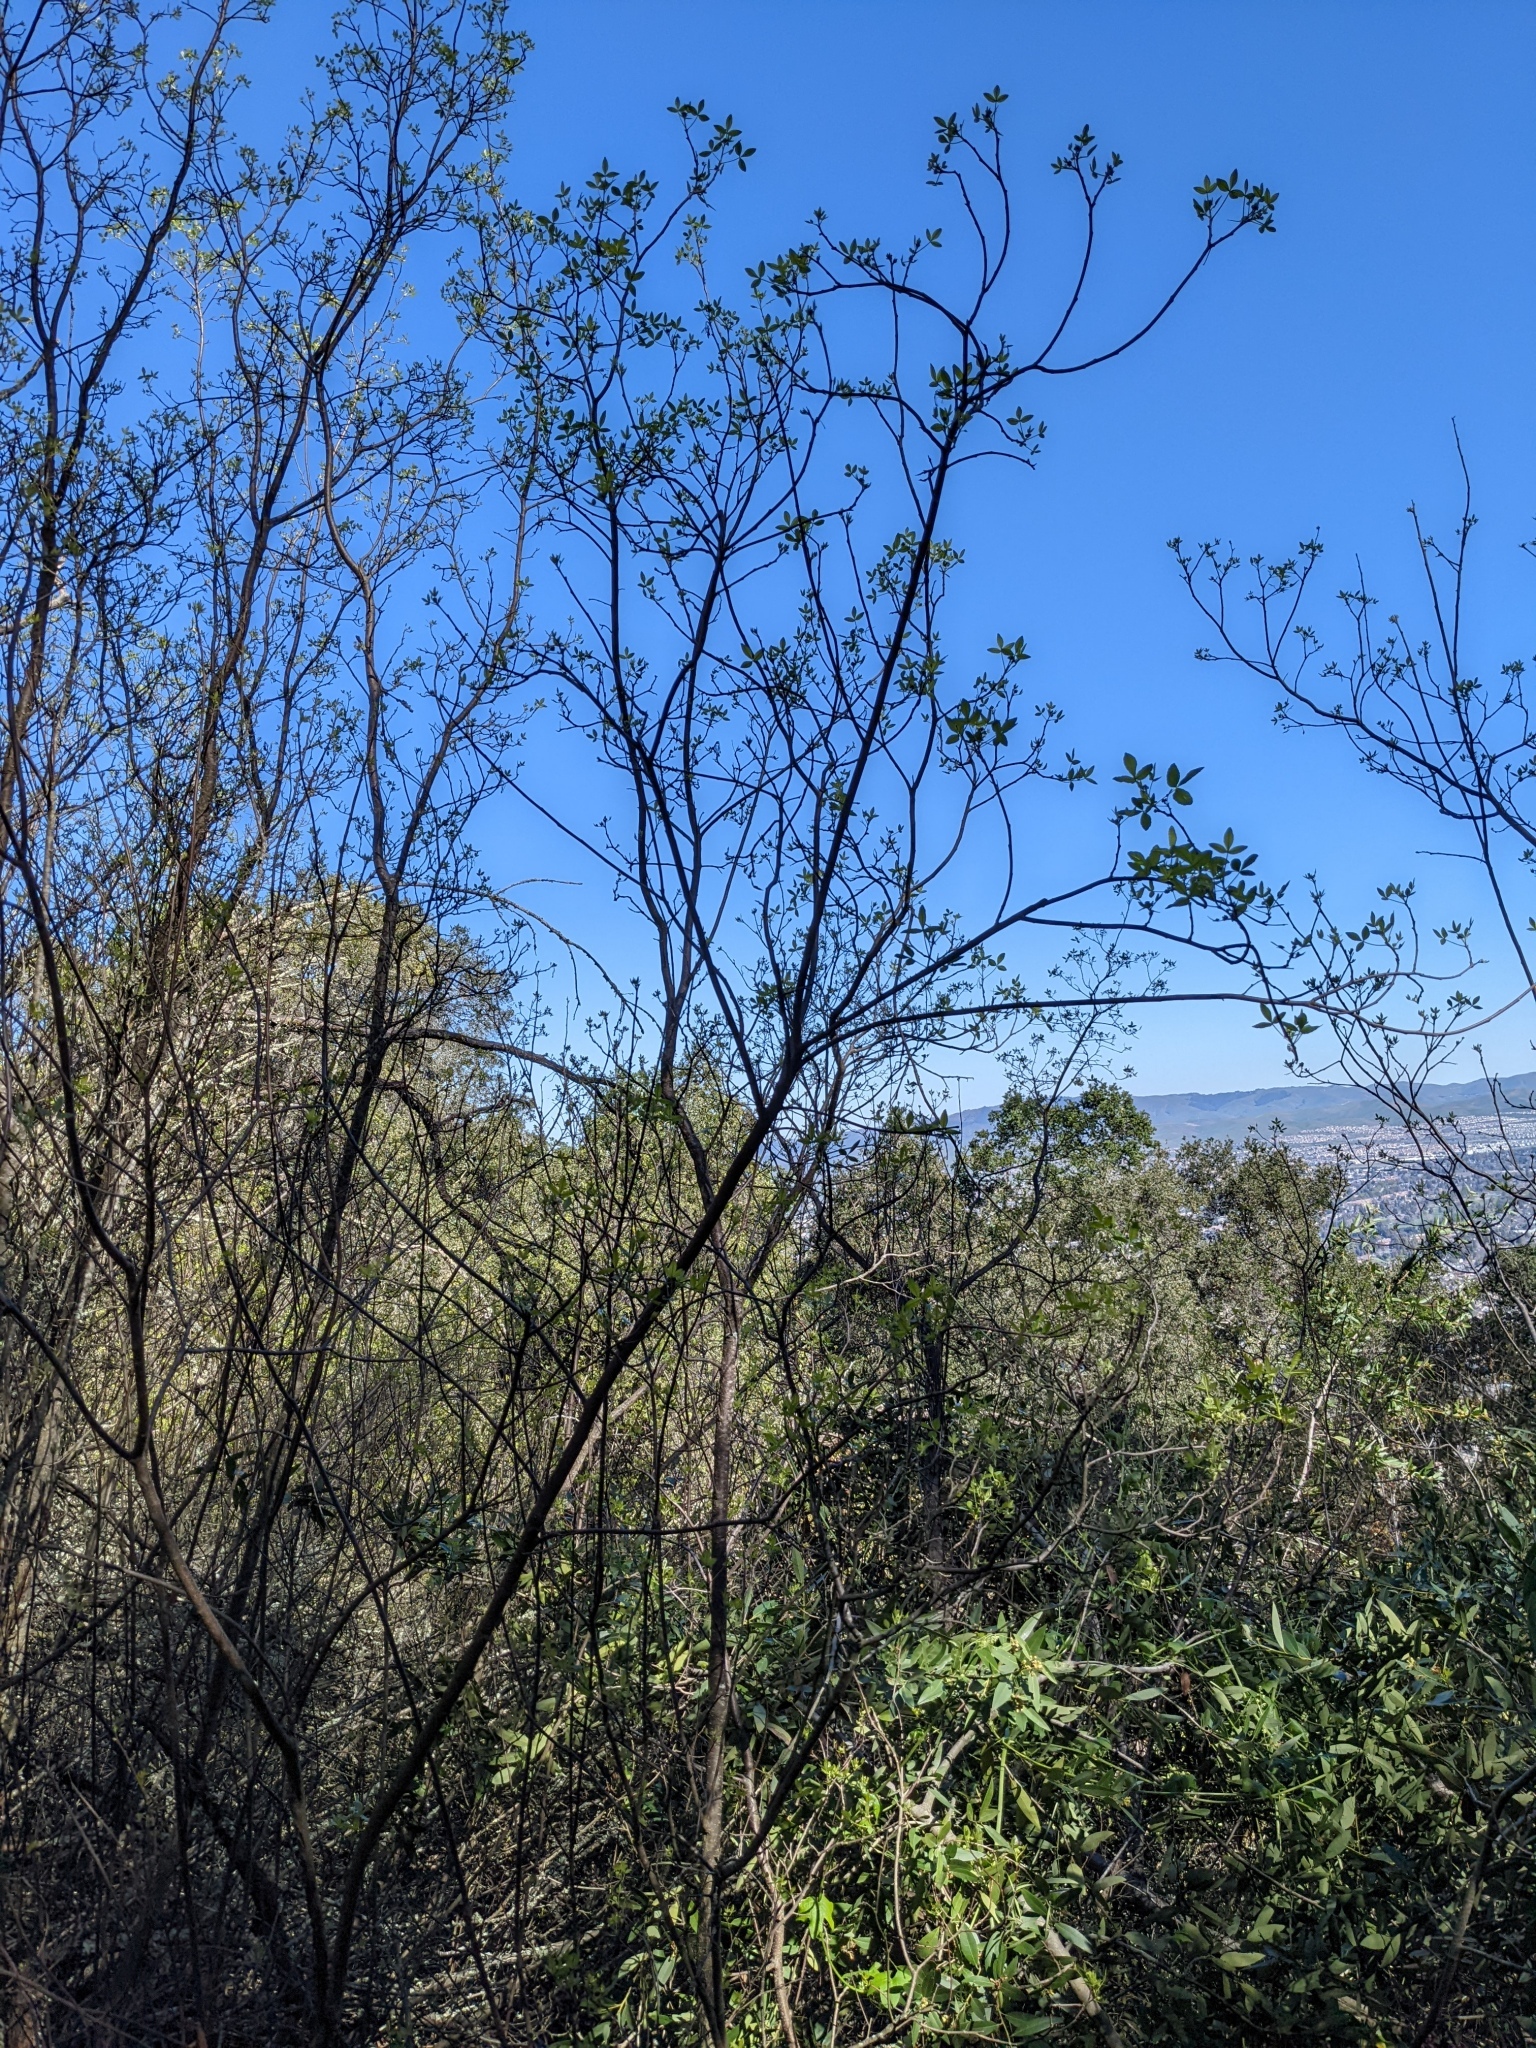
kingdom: Plantae
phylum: Tracheophyta
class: Magnoliopsida
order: Sapindales
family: Rutaceae
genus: Ptelea
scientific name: Ptelea crenulata
